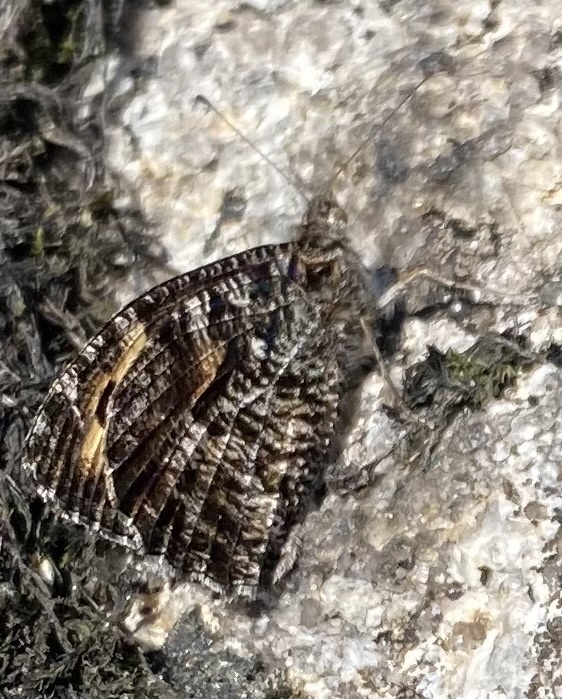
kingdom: Animalia
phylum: Arthropoda
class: Insecta
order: Lepidoptera
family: Nymphalidae
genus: Hipparchia
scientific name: Hipparchia semele
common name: Grayling
